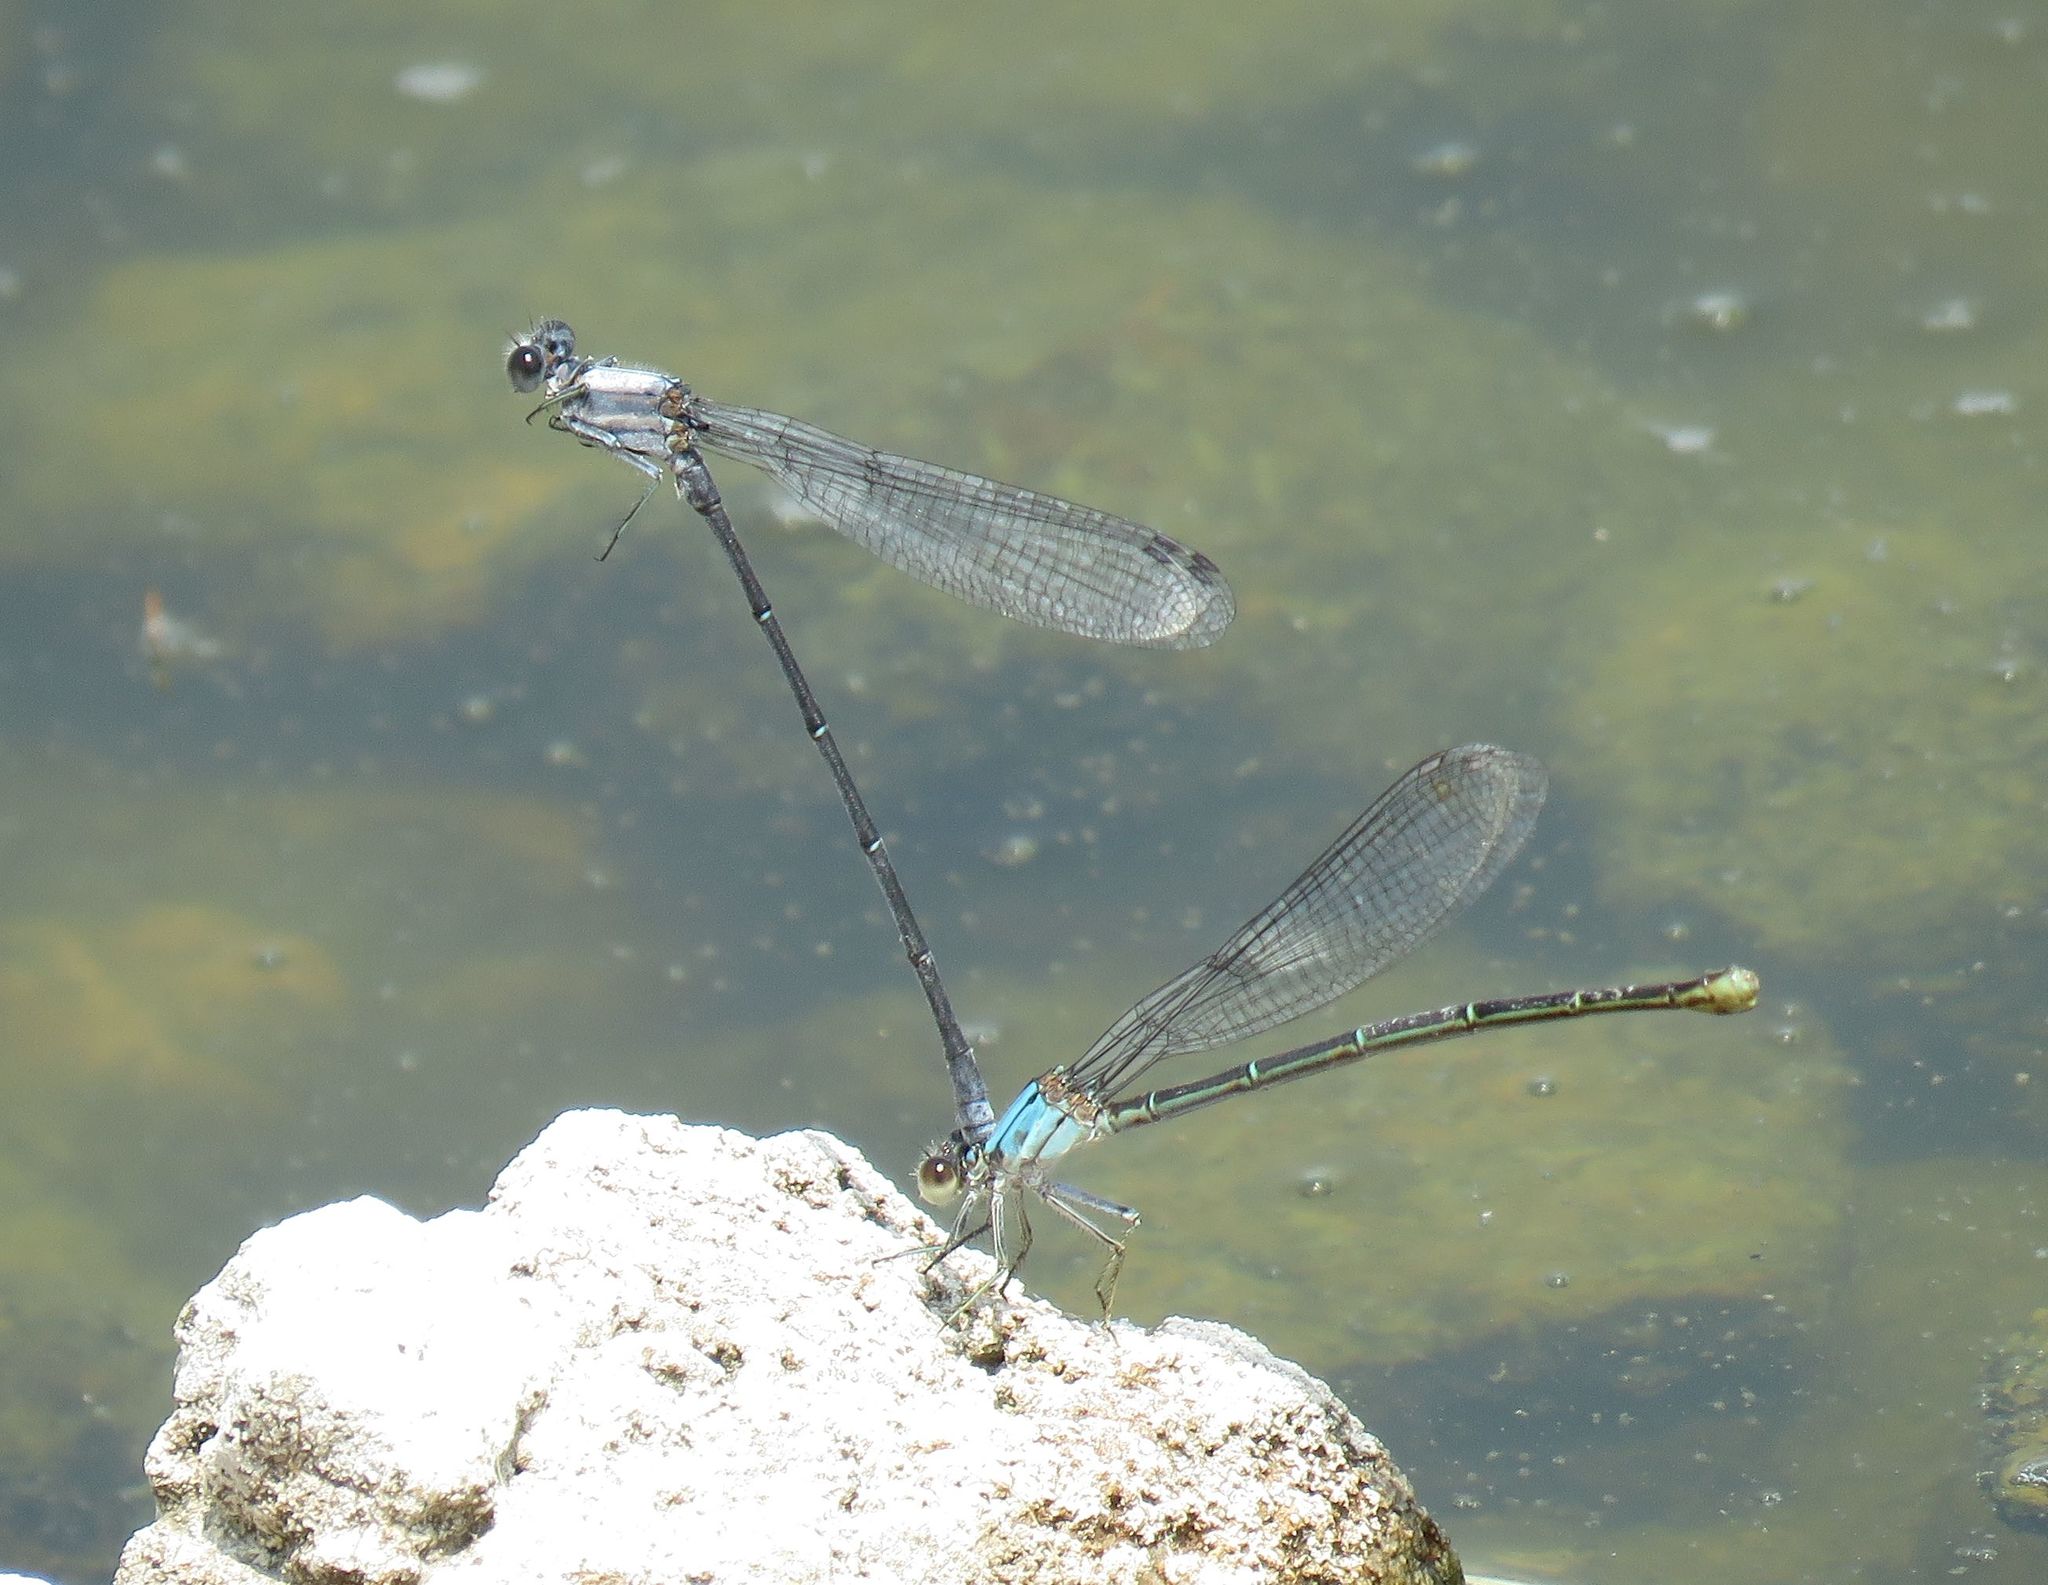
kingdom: Animalia
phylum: Arthropoda
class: Insecta
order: Odonata
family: Coenagrionidae
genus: Argia
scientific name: Argia moesta
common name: Powdered dancer
